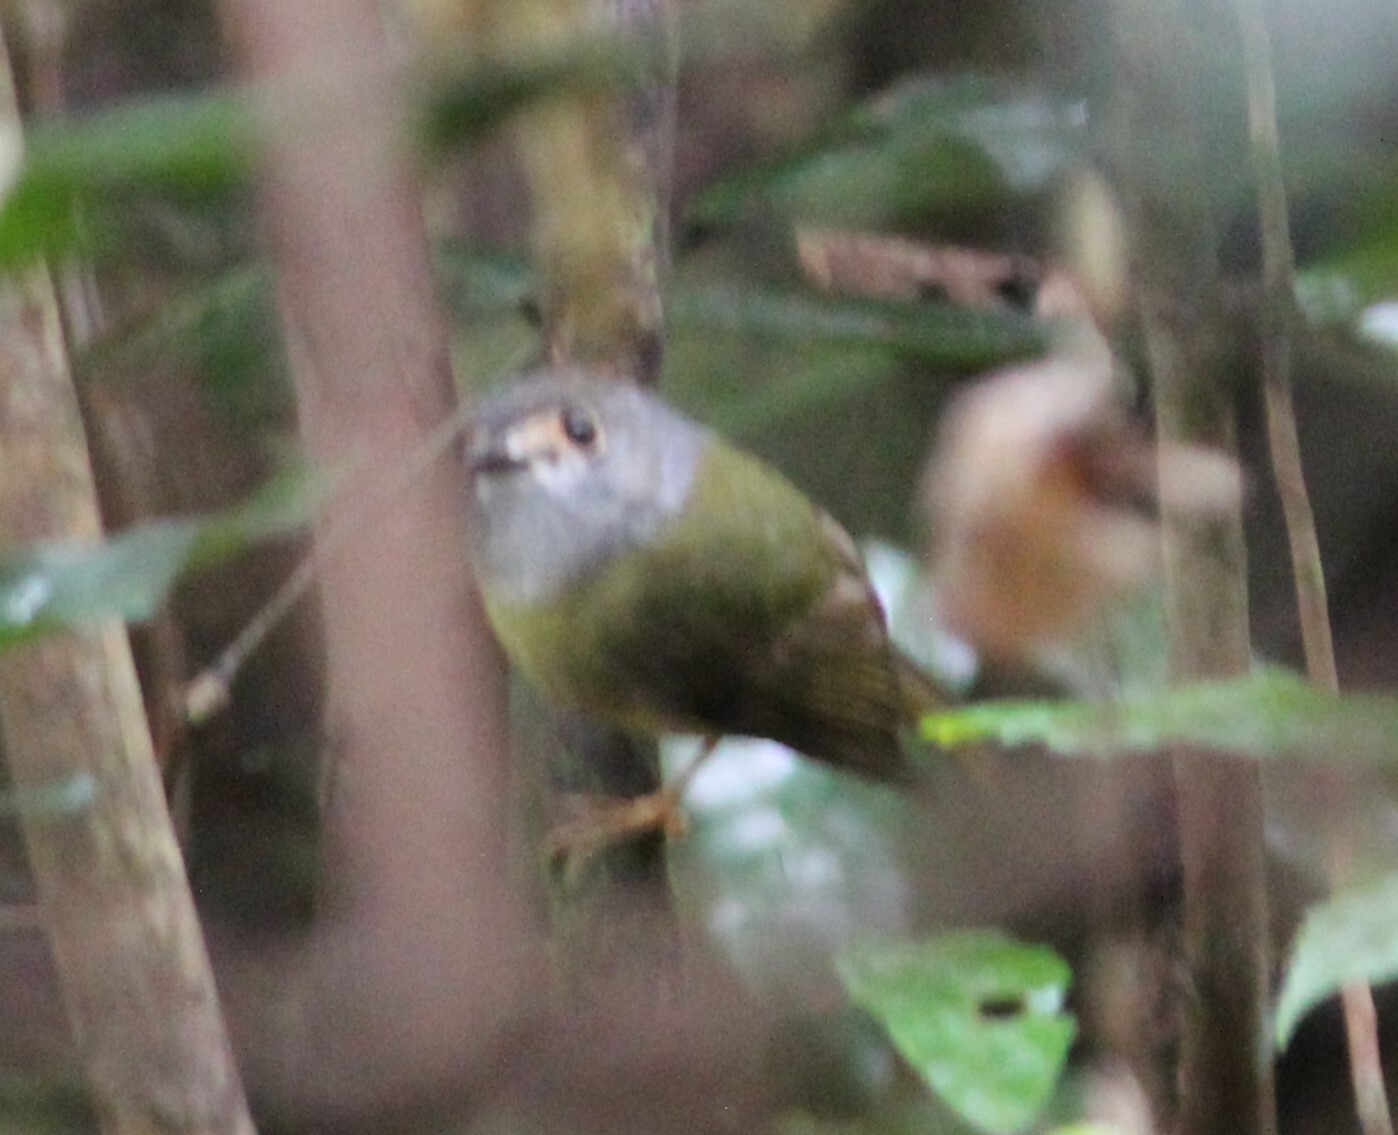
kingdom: Animalia
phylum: Chordata
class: Aves
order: Passeriformes
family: Petroicidae
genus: Eopsaltria
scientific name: Eopsaltria
